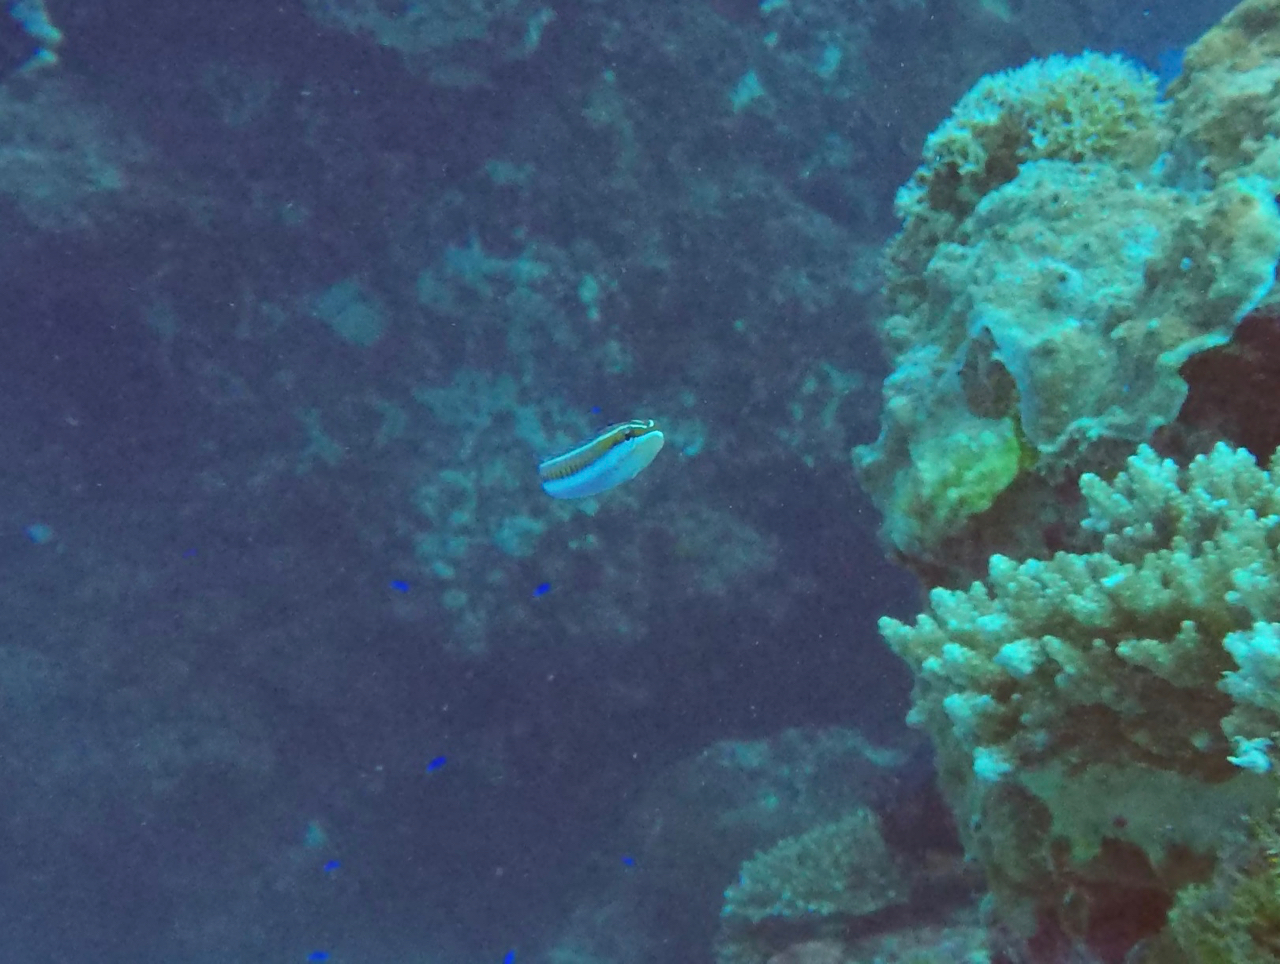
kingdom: Animalia
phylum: Chordata
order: Perciformes
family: Blenniidae
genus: Plagiotremus
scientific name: Plagiotremus tapeinosoma
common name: Hit and run blenny
